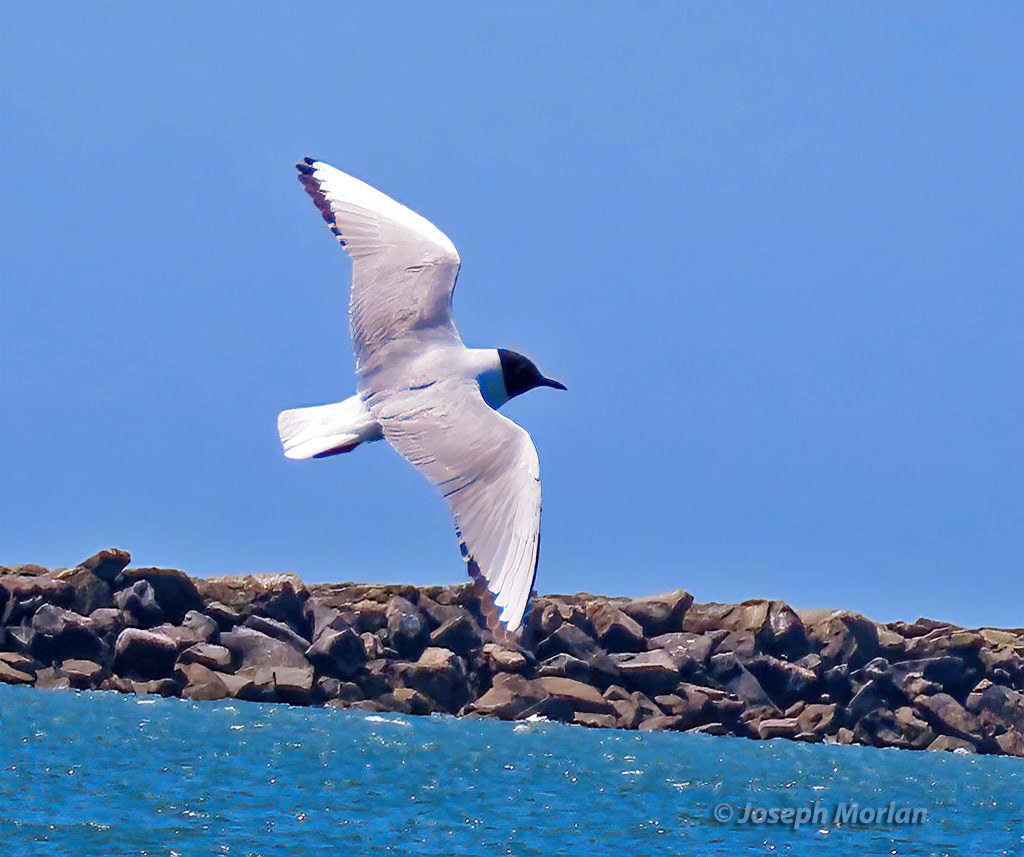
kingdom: Animalia
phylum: Chordata
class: Aves
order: Charadriiformes
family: Laridae
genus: Chroicocephalus
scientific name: Chroicocephalus philadelphia
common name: Bonaparte's gull
